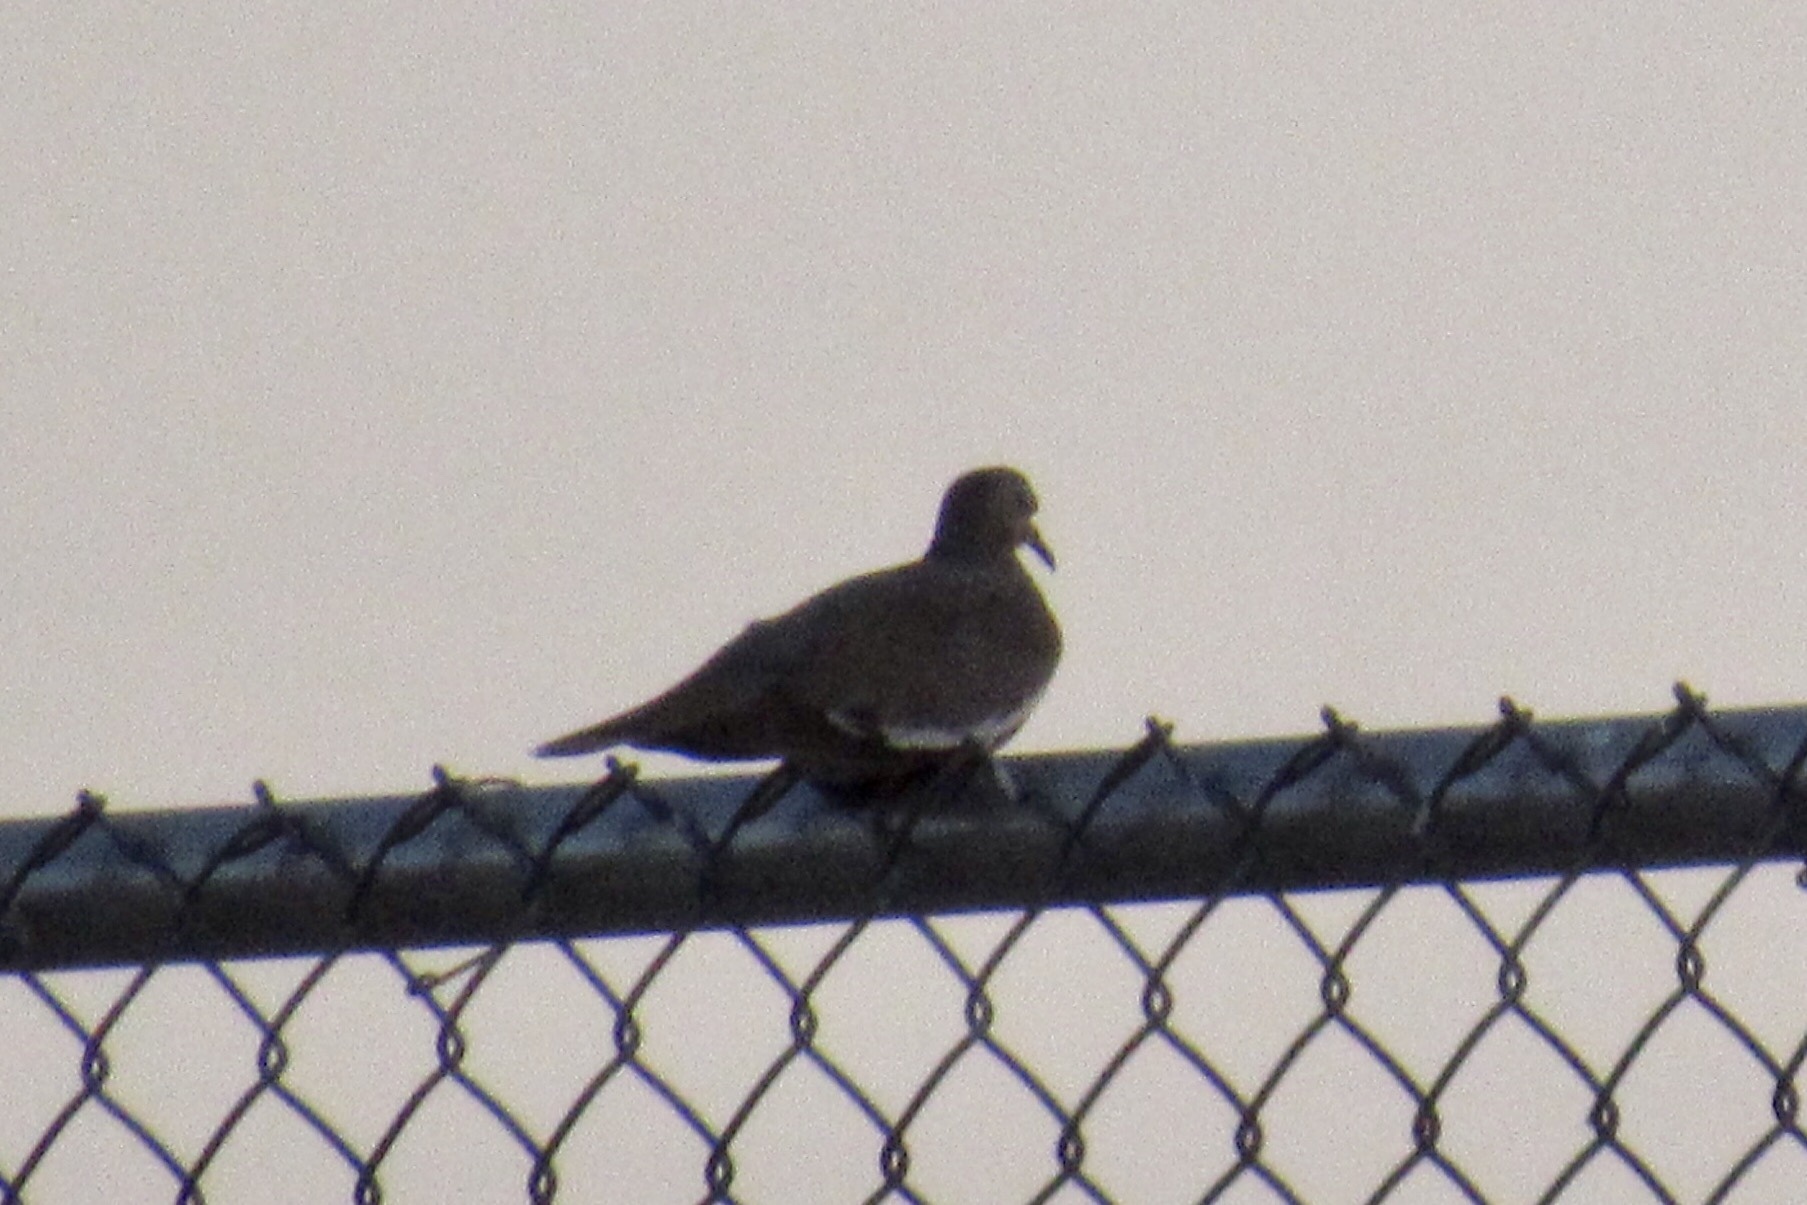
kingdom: Animalia
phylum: Chordata
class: Aves
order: Columbiformes
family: Columbidae
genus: Zenaida
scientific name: Zenaida asiatica
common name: White-winged dove
